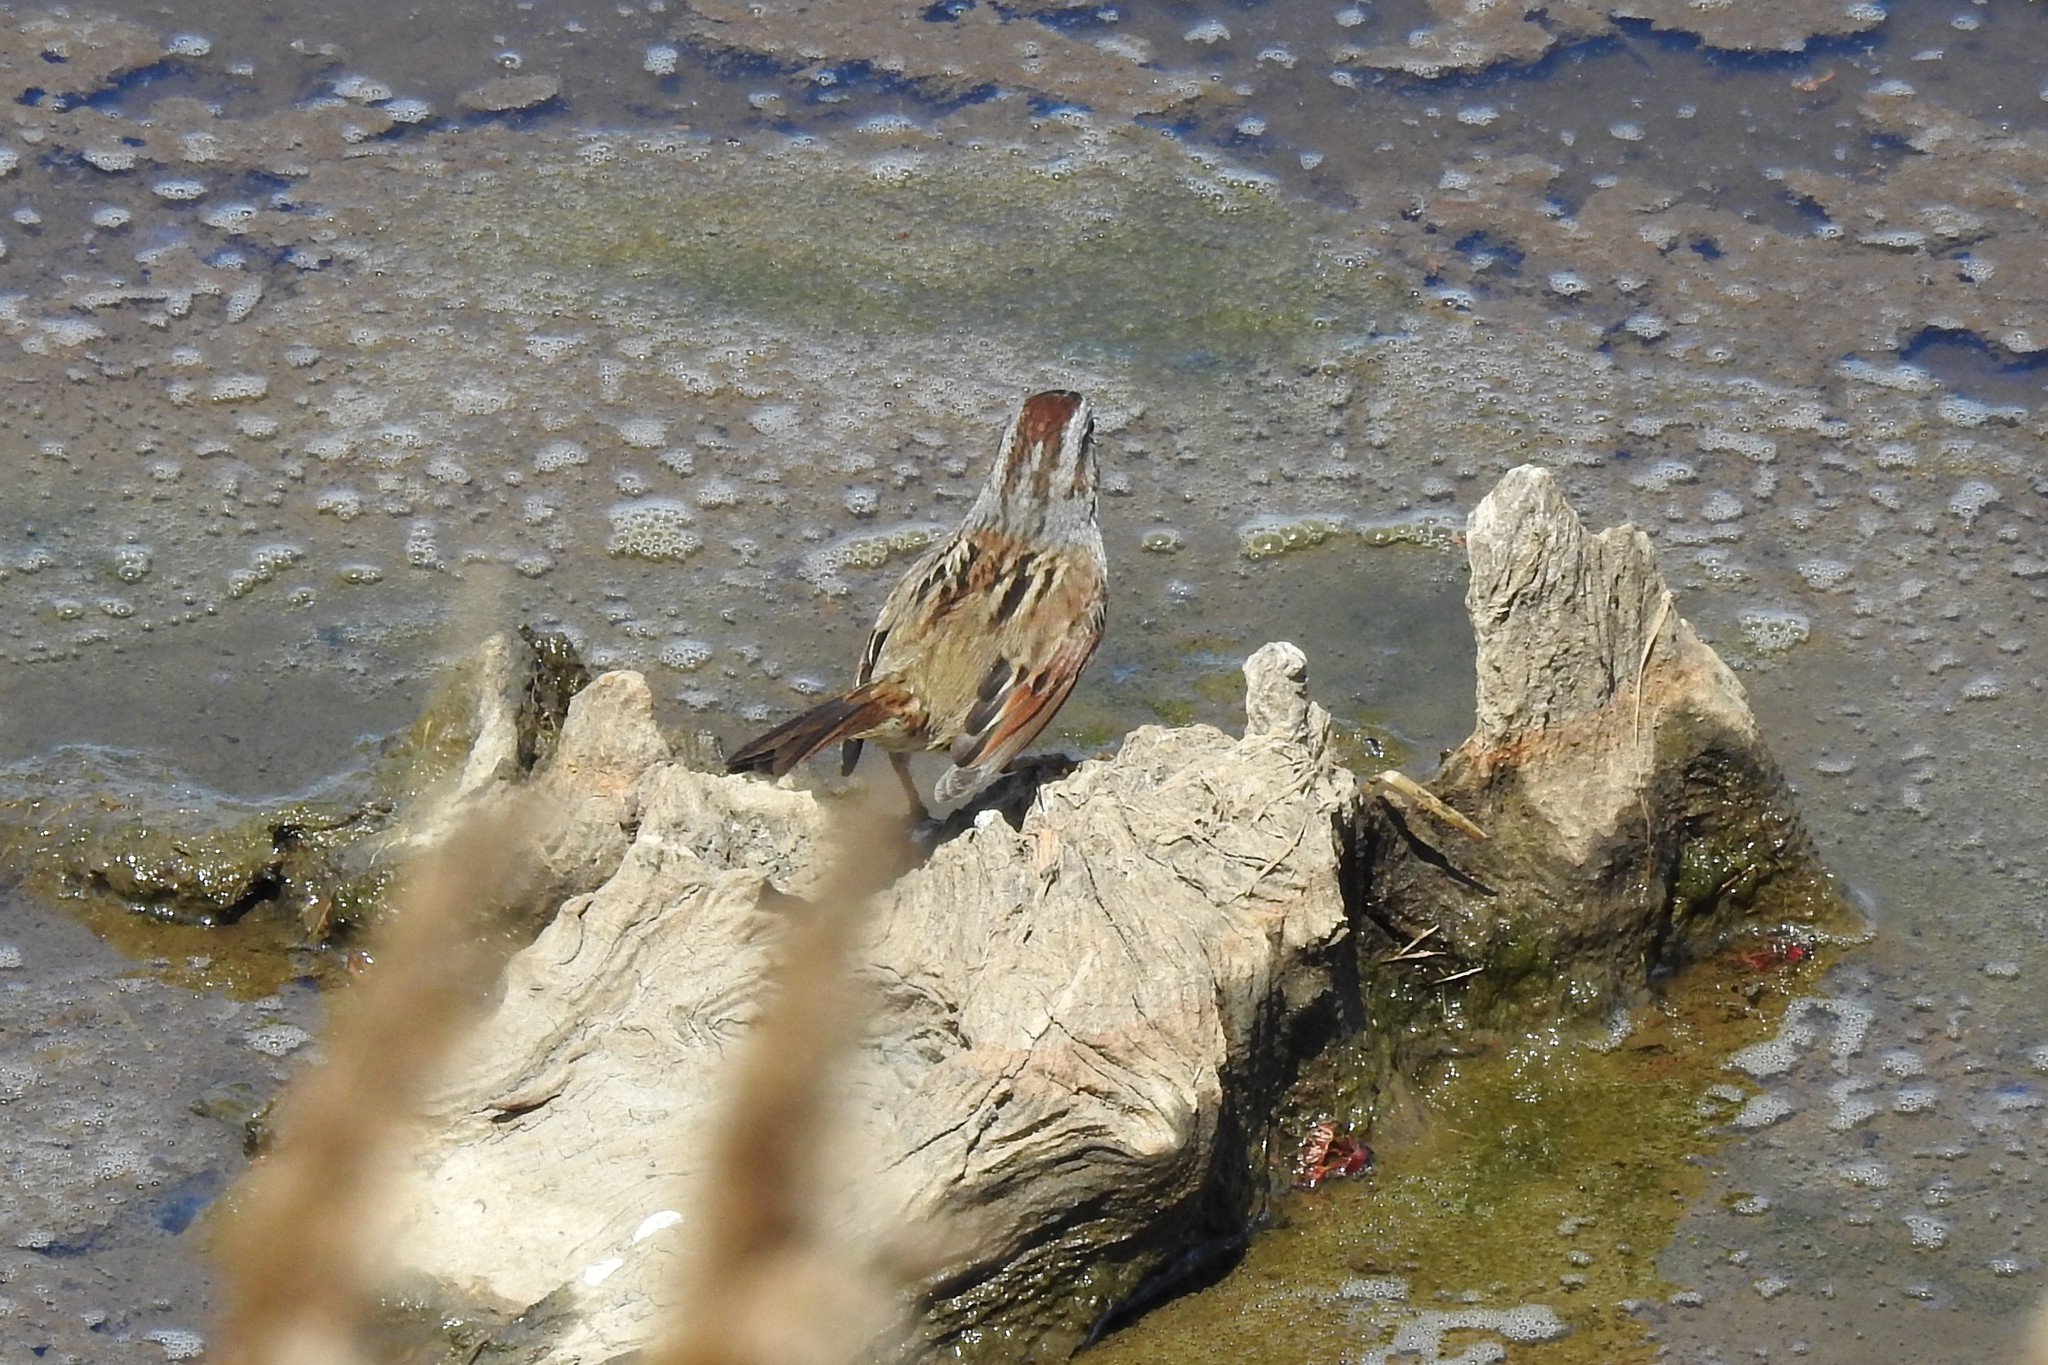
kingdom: Animalia
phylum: Chordata
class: Aves
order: Passeriformes
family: Passerellidae
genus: Melospiza
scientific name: Melospiza georgiana
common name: Swamp sparrow
